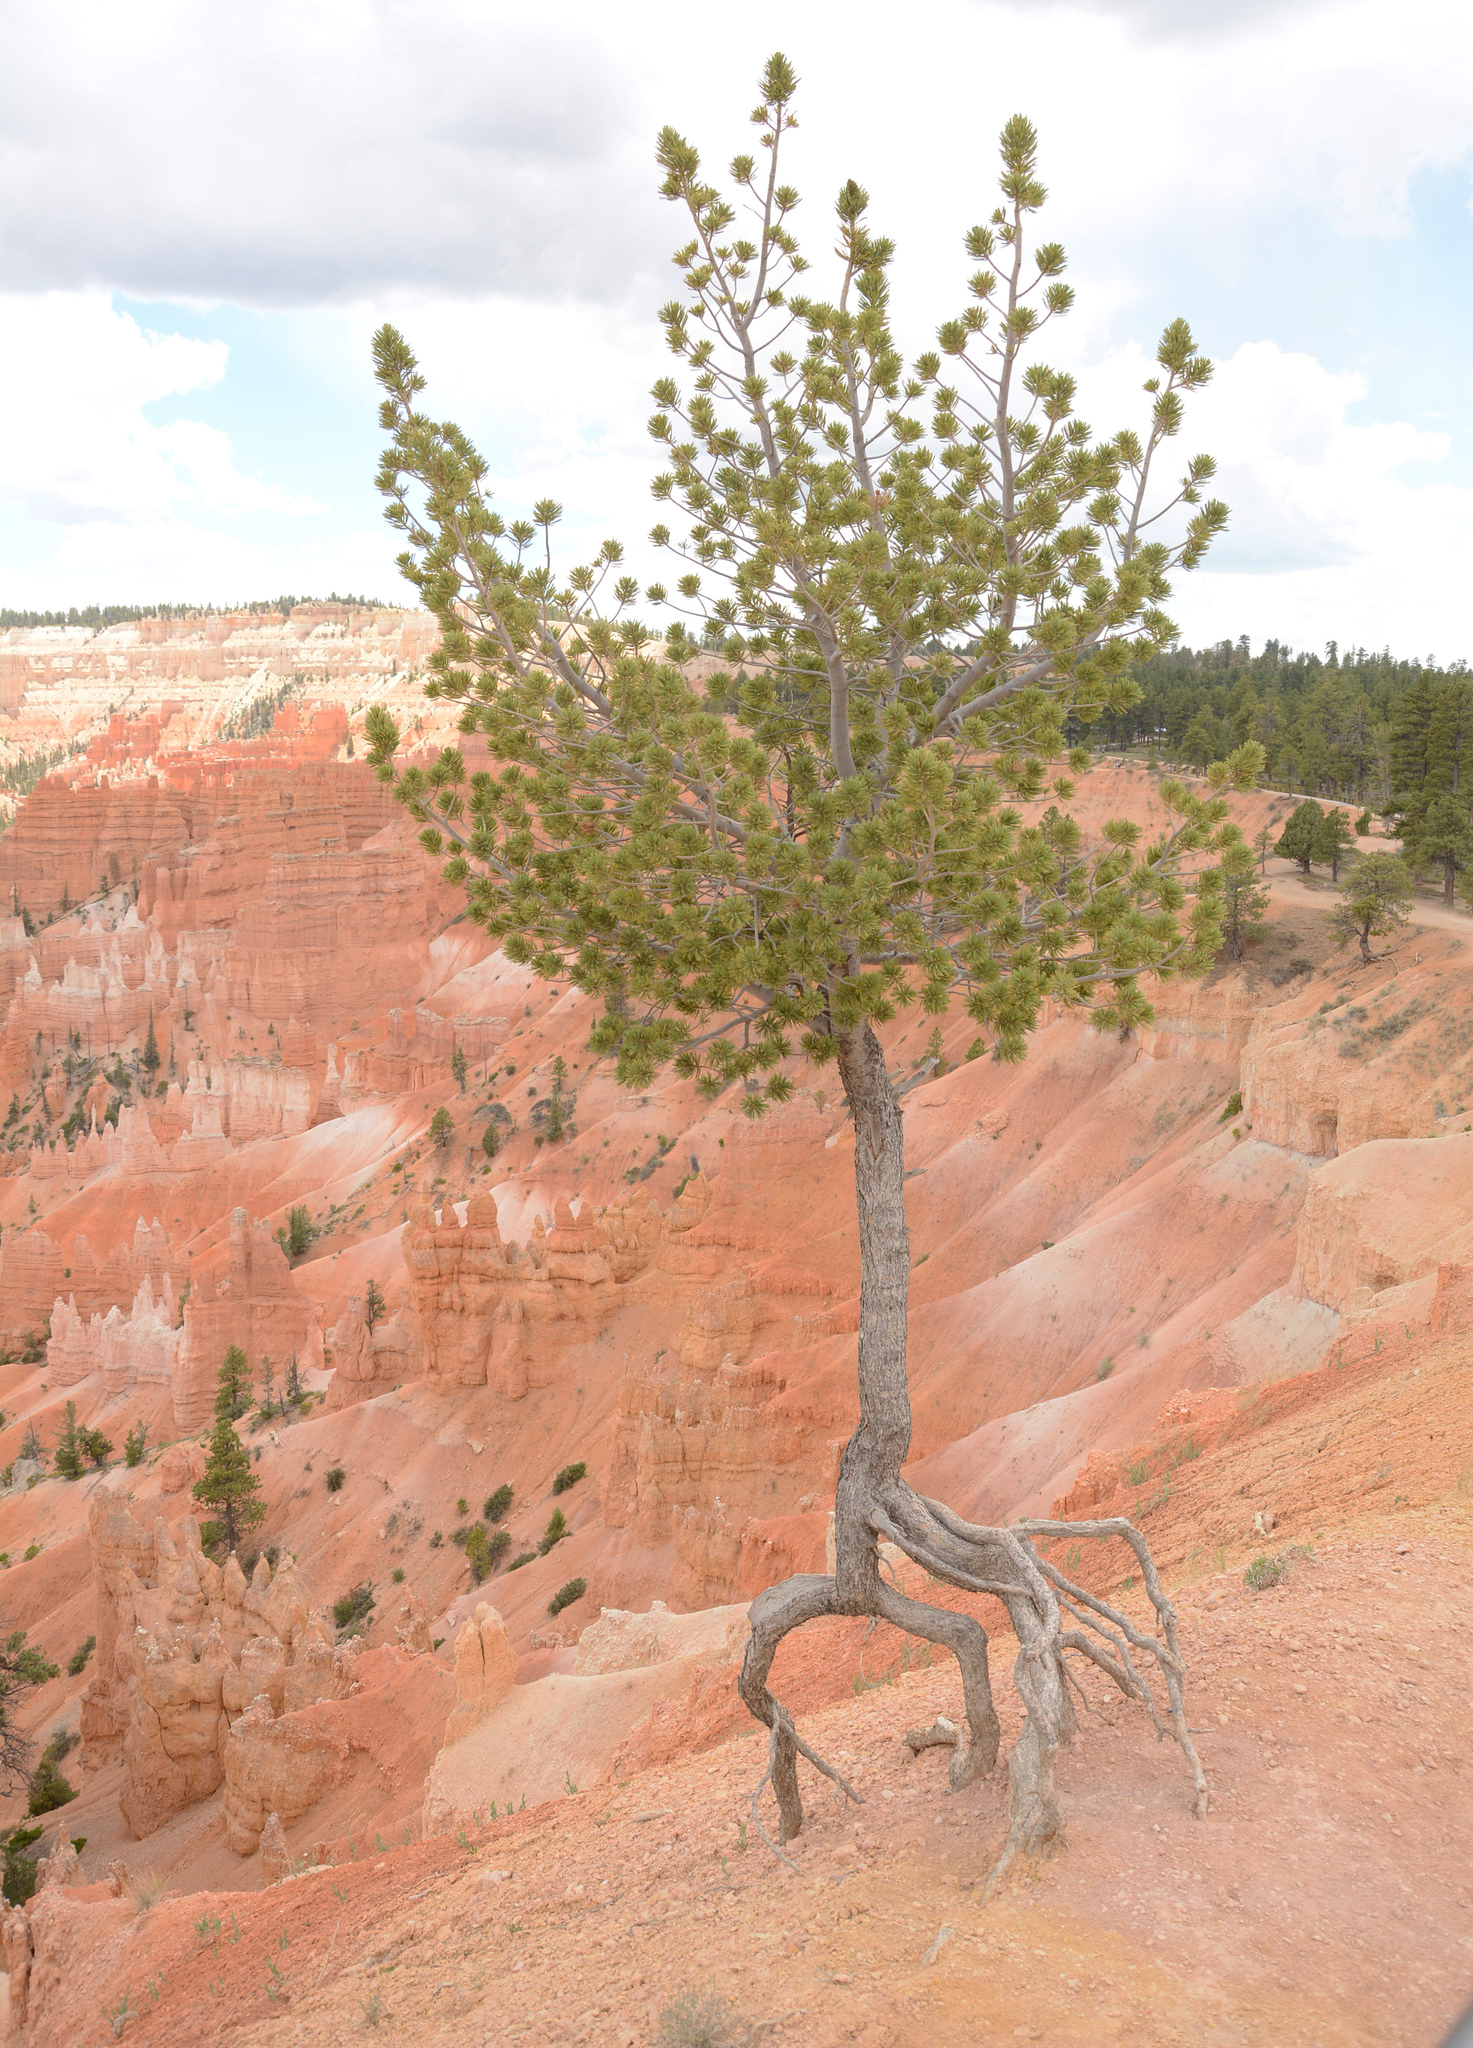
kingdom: Plantae
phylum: Tracheophyta
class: Pinopsida
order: Pinales
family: Pinaceae
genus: Pinus
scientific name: Pinus flexilis
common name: Limber pine
